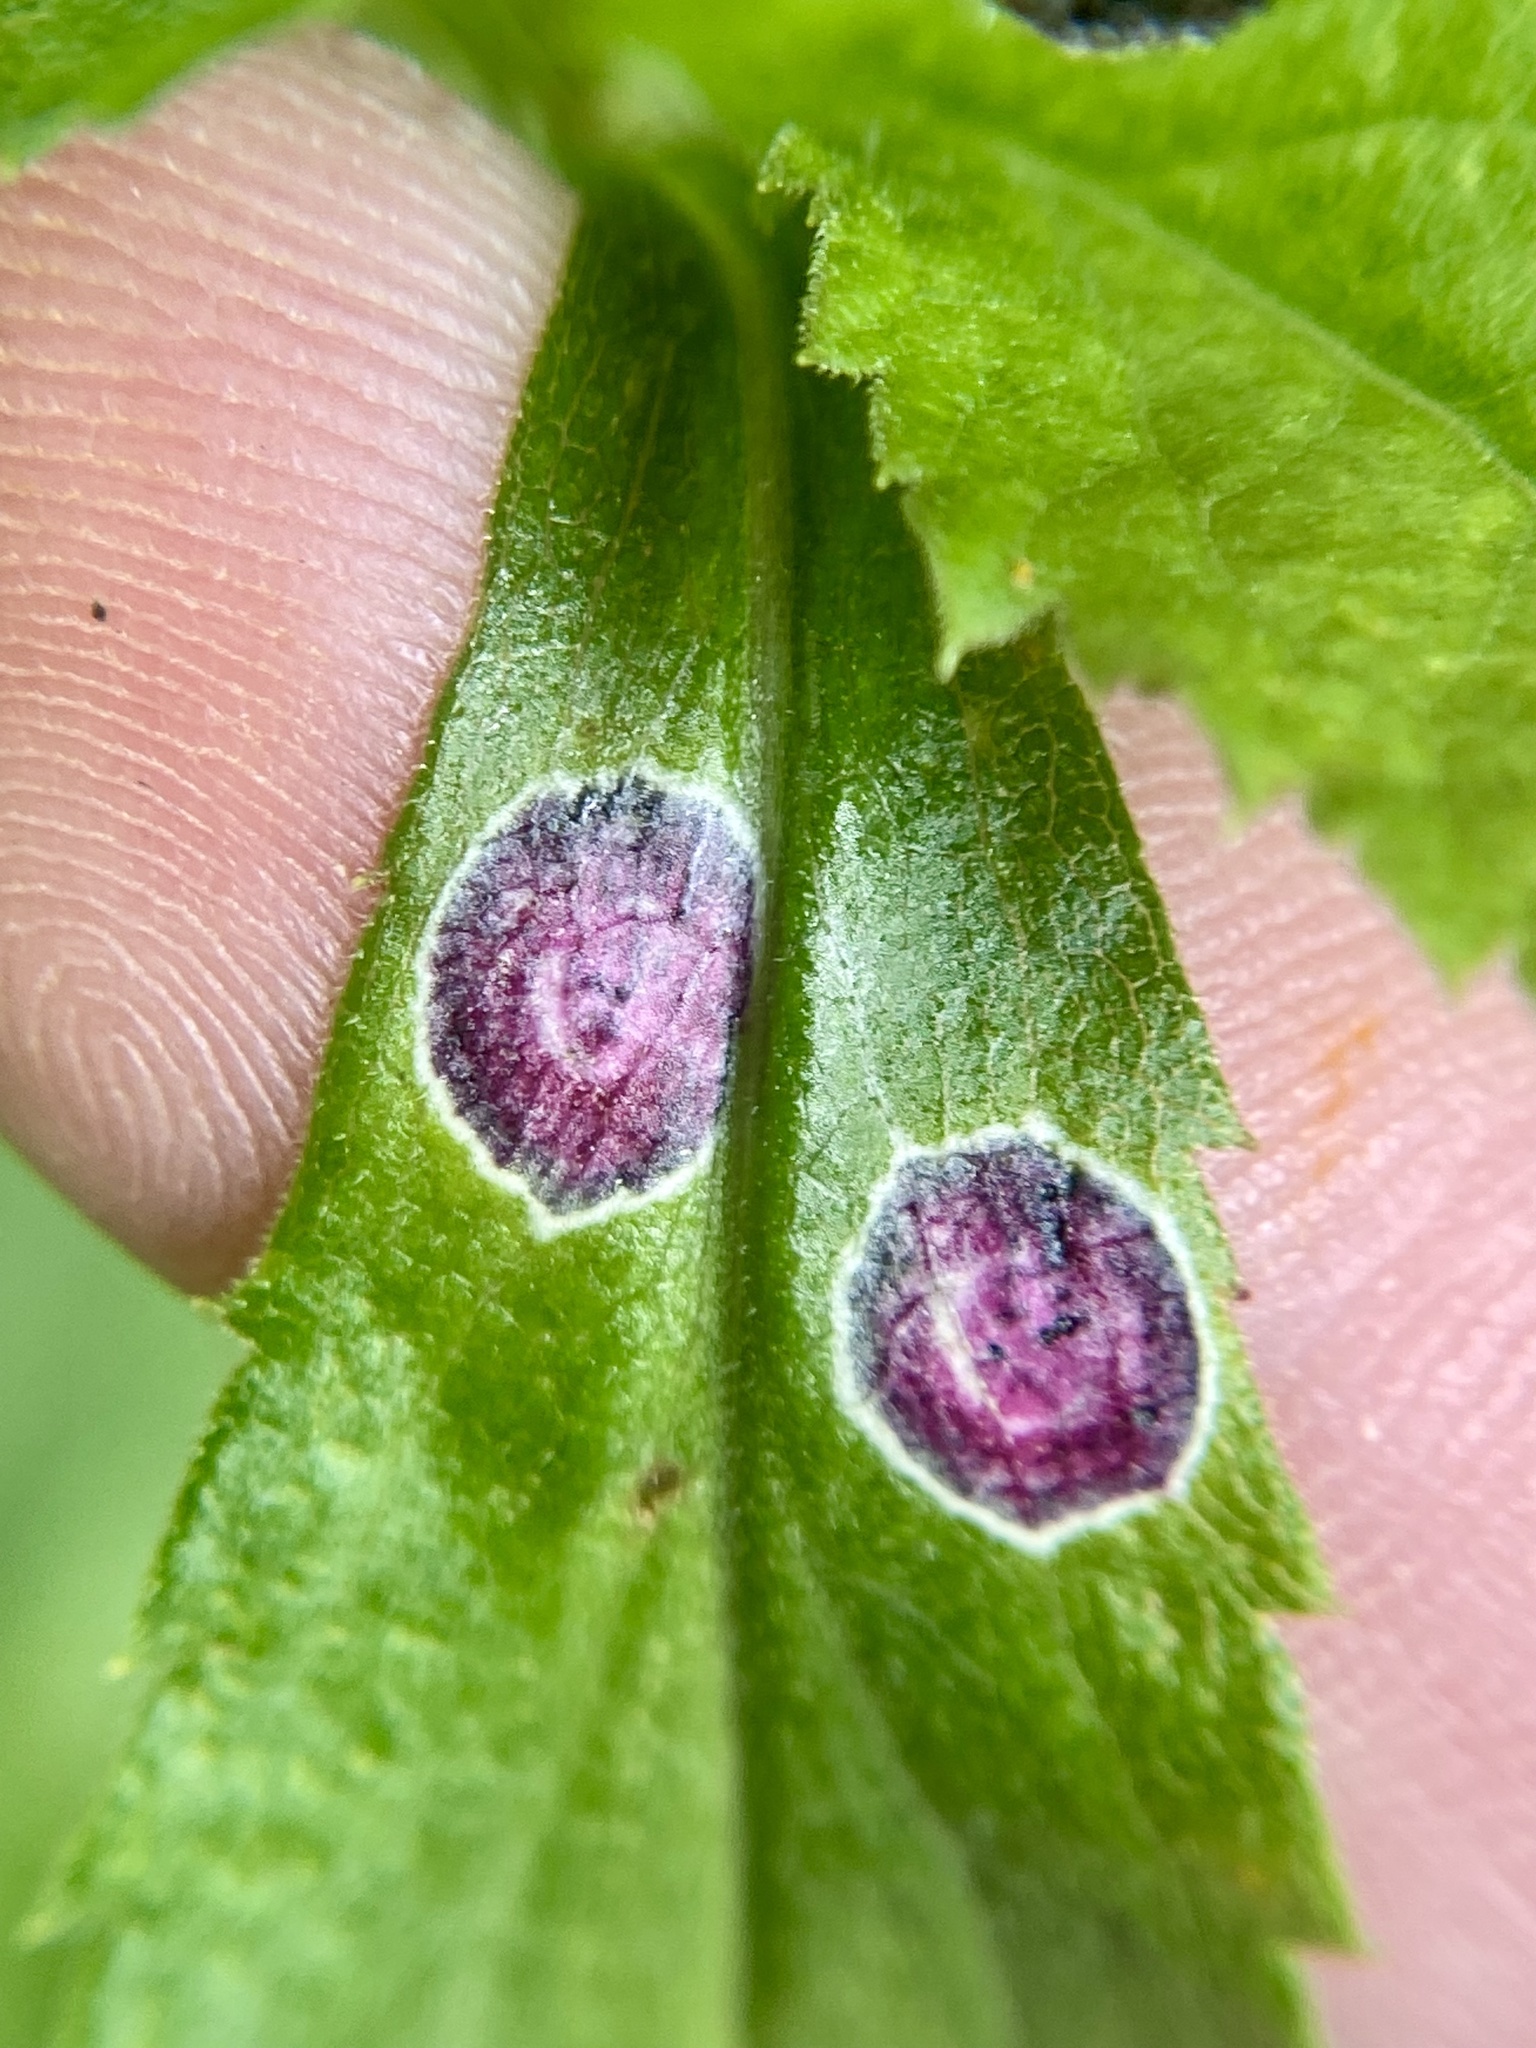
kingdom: Animalia
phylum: Arthropoda
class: Insecta
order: Diptera
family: Cecidomyiidae
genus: Asteromyia
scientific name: Asteromyia carbonifera
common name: Carbonifera goldenrod gall midge
